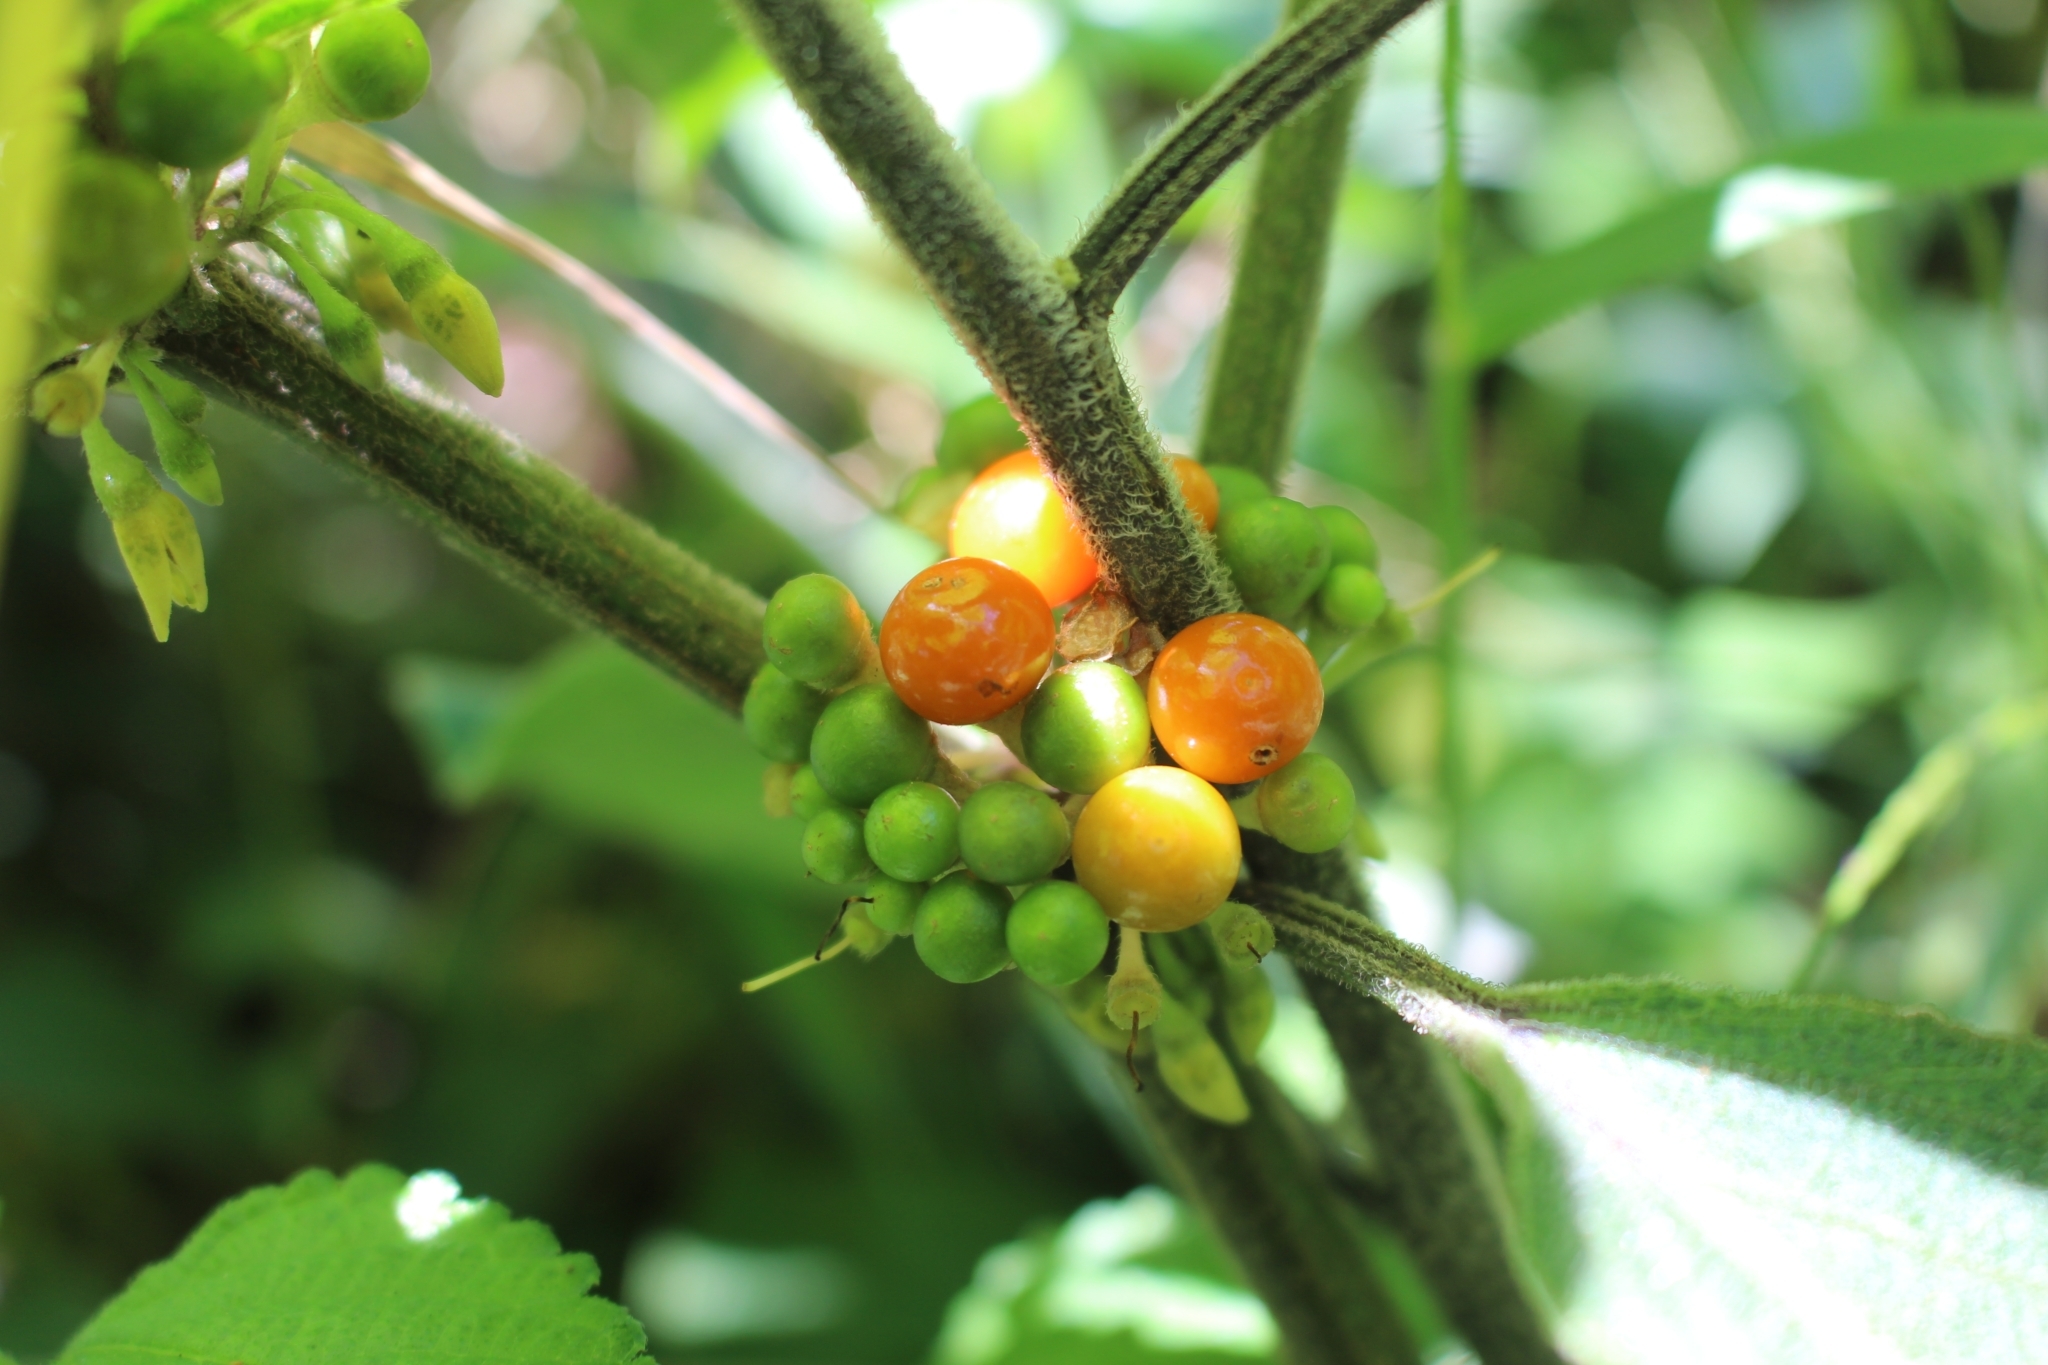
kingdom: Plantae
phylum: Tracheophyta
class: Magnoliopsida
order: Solanales
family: Solanaceae
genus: Witheringia
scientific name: Witheringia solanacea
